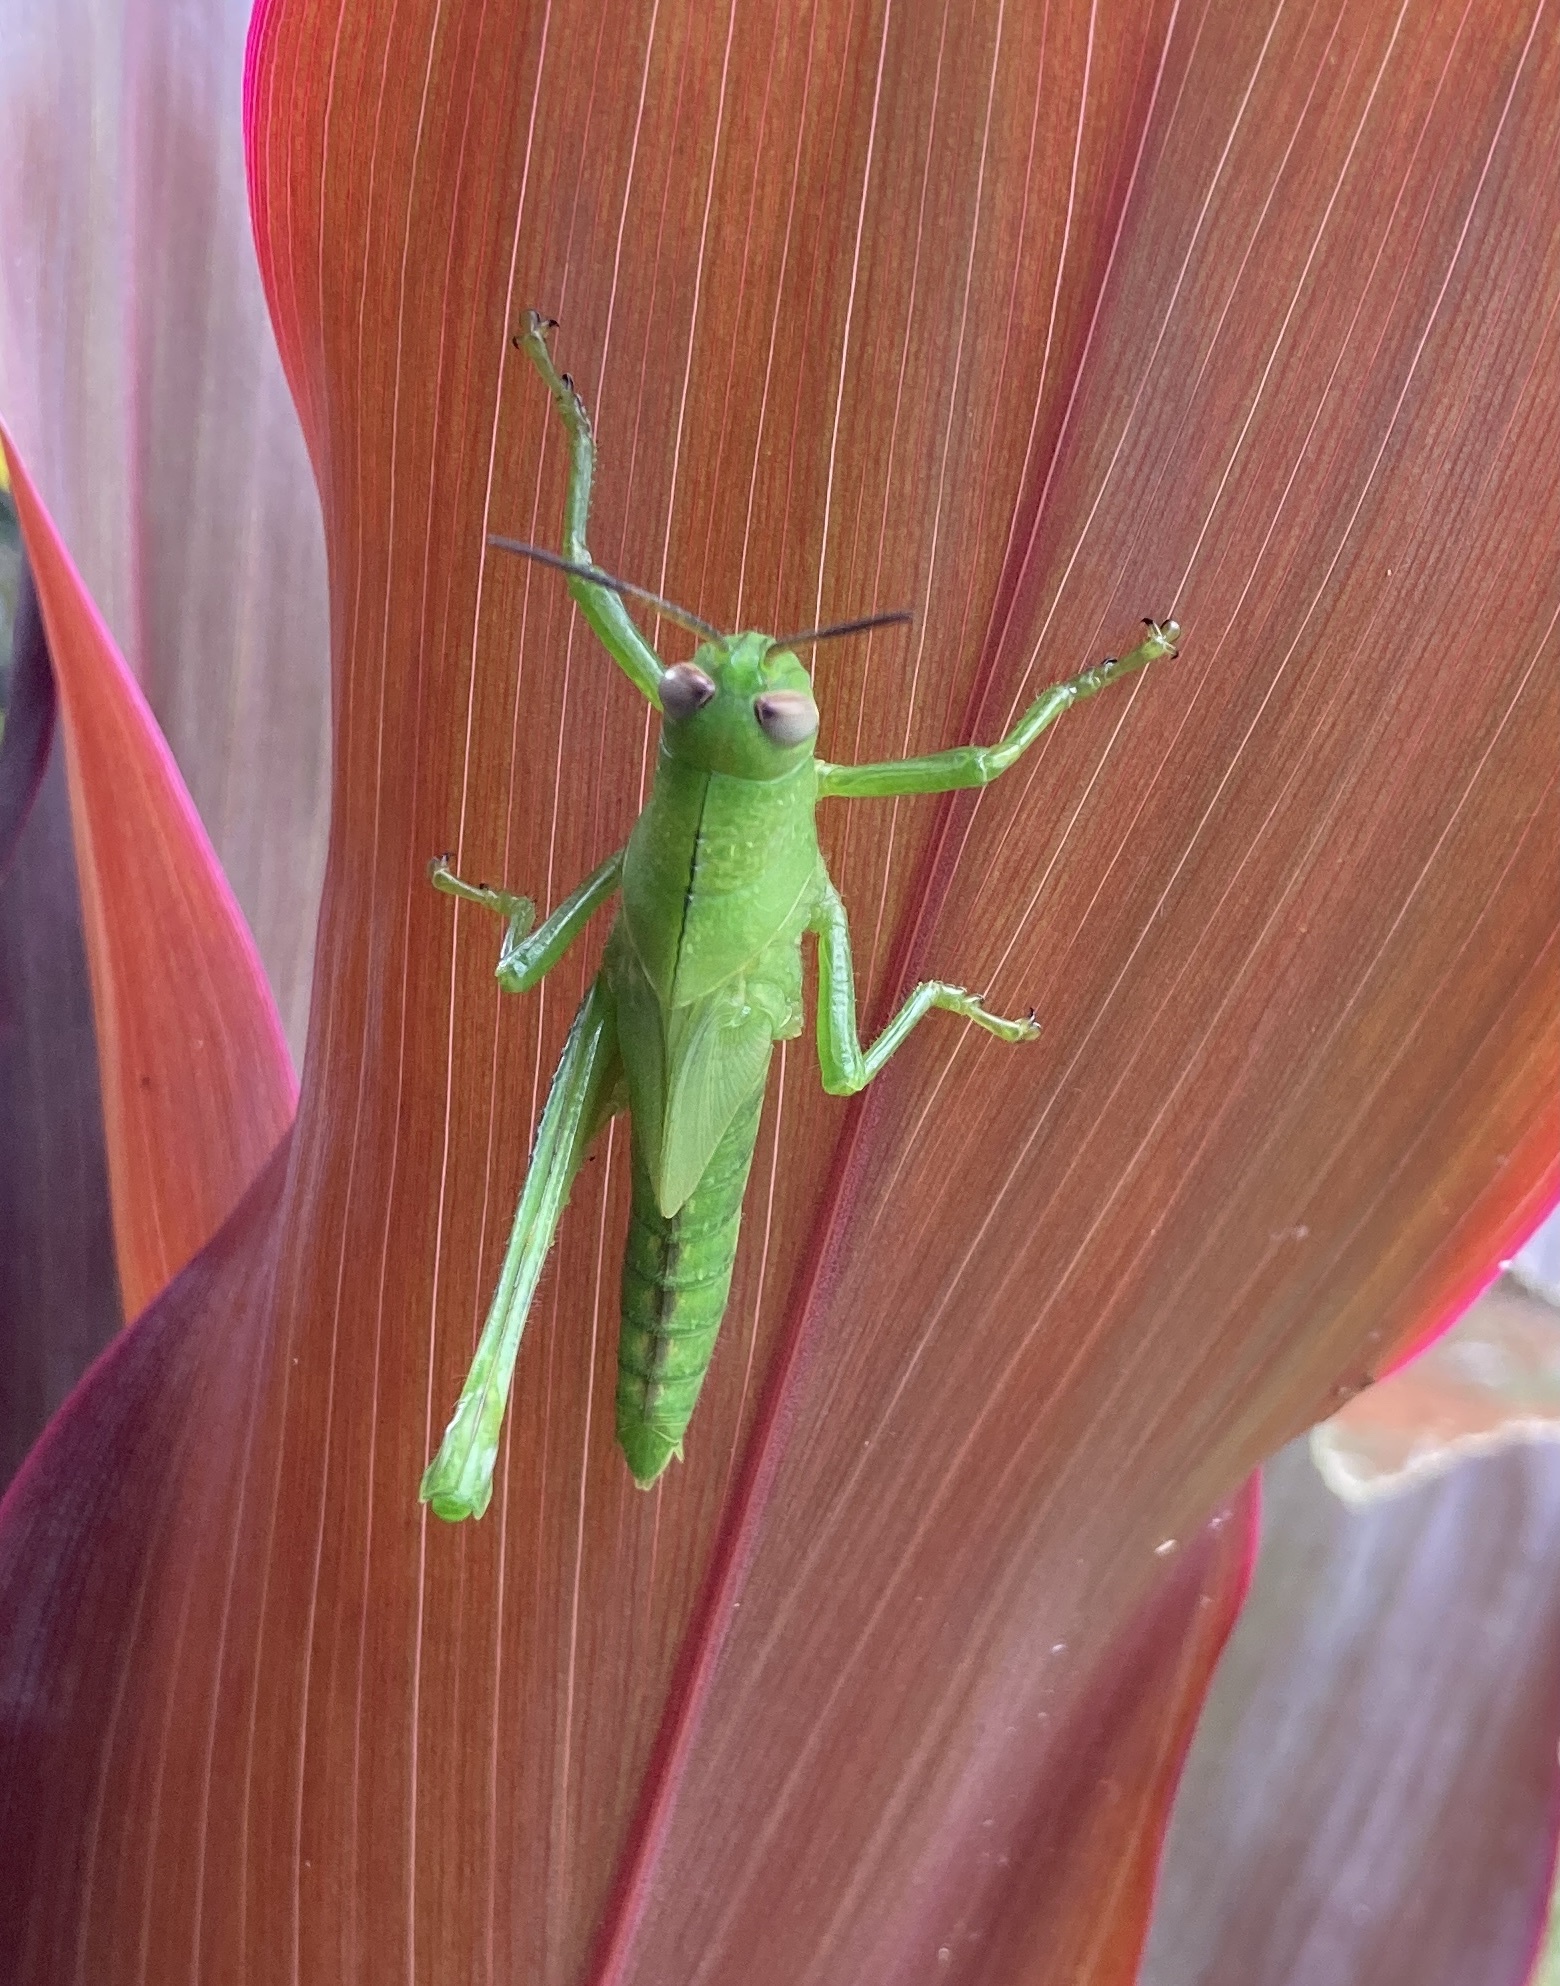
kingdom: Animalia
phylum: Arthropoda
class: Insecta
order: Orthoptera
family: Acrididae
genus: Valanga
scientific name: Valanga irregularis
